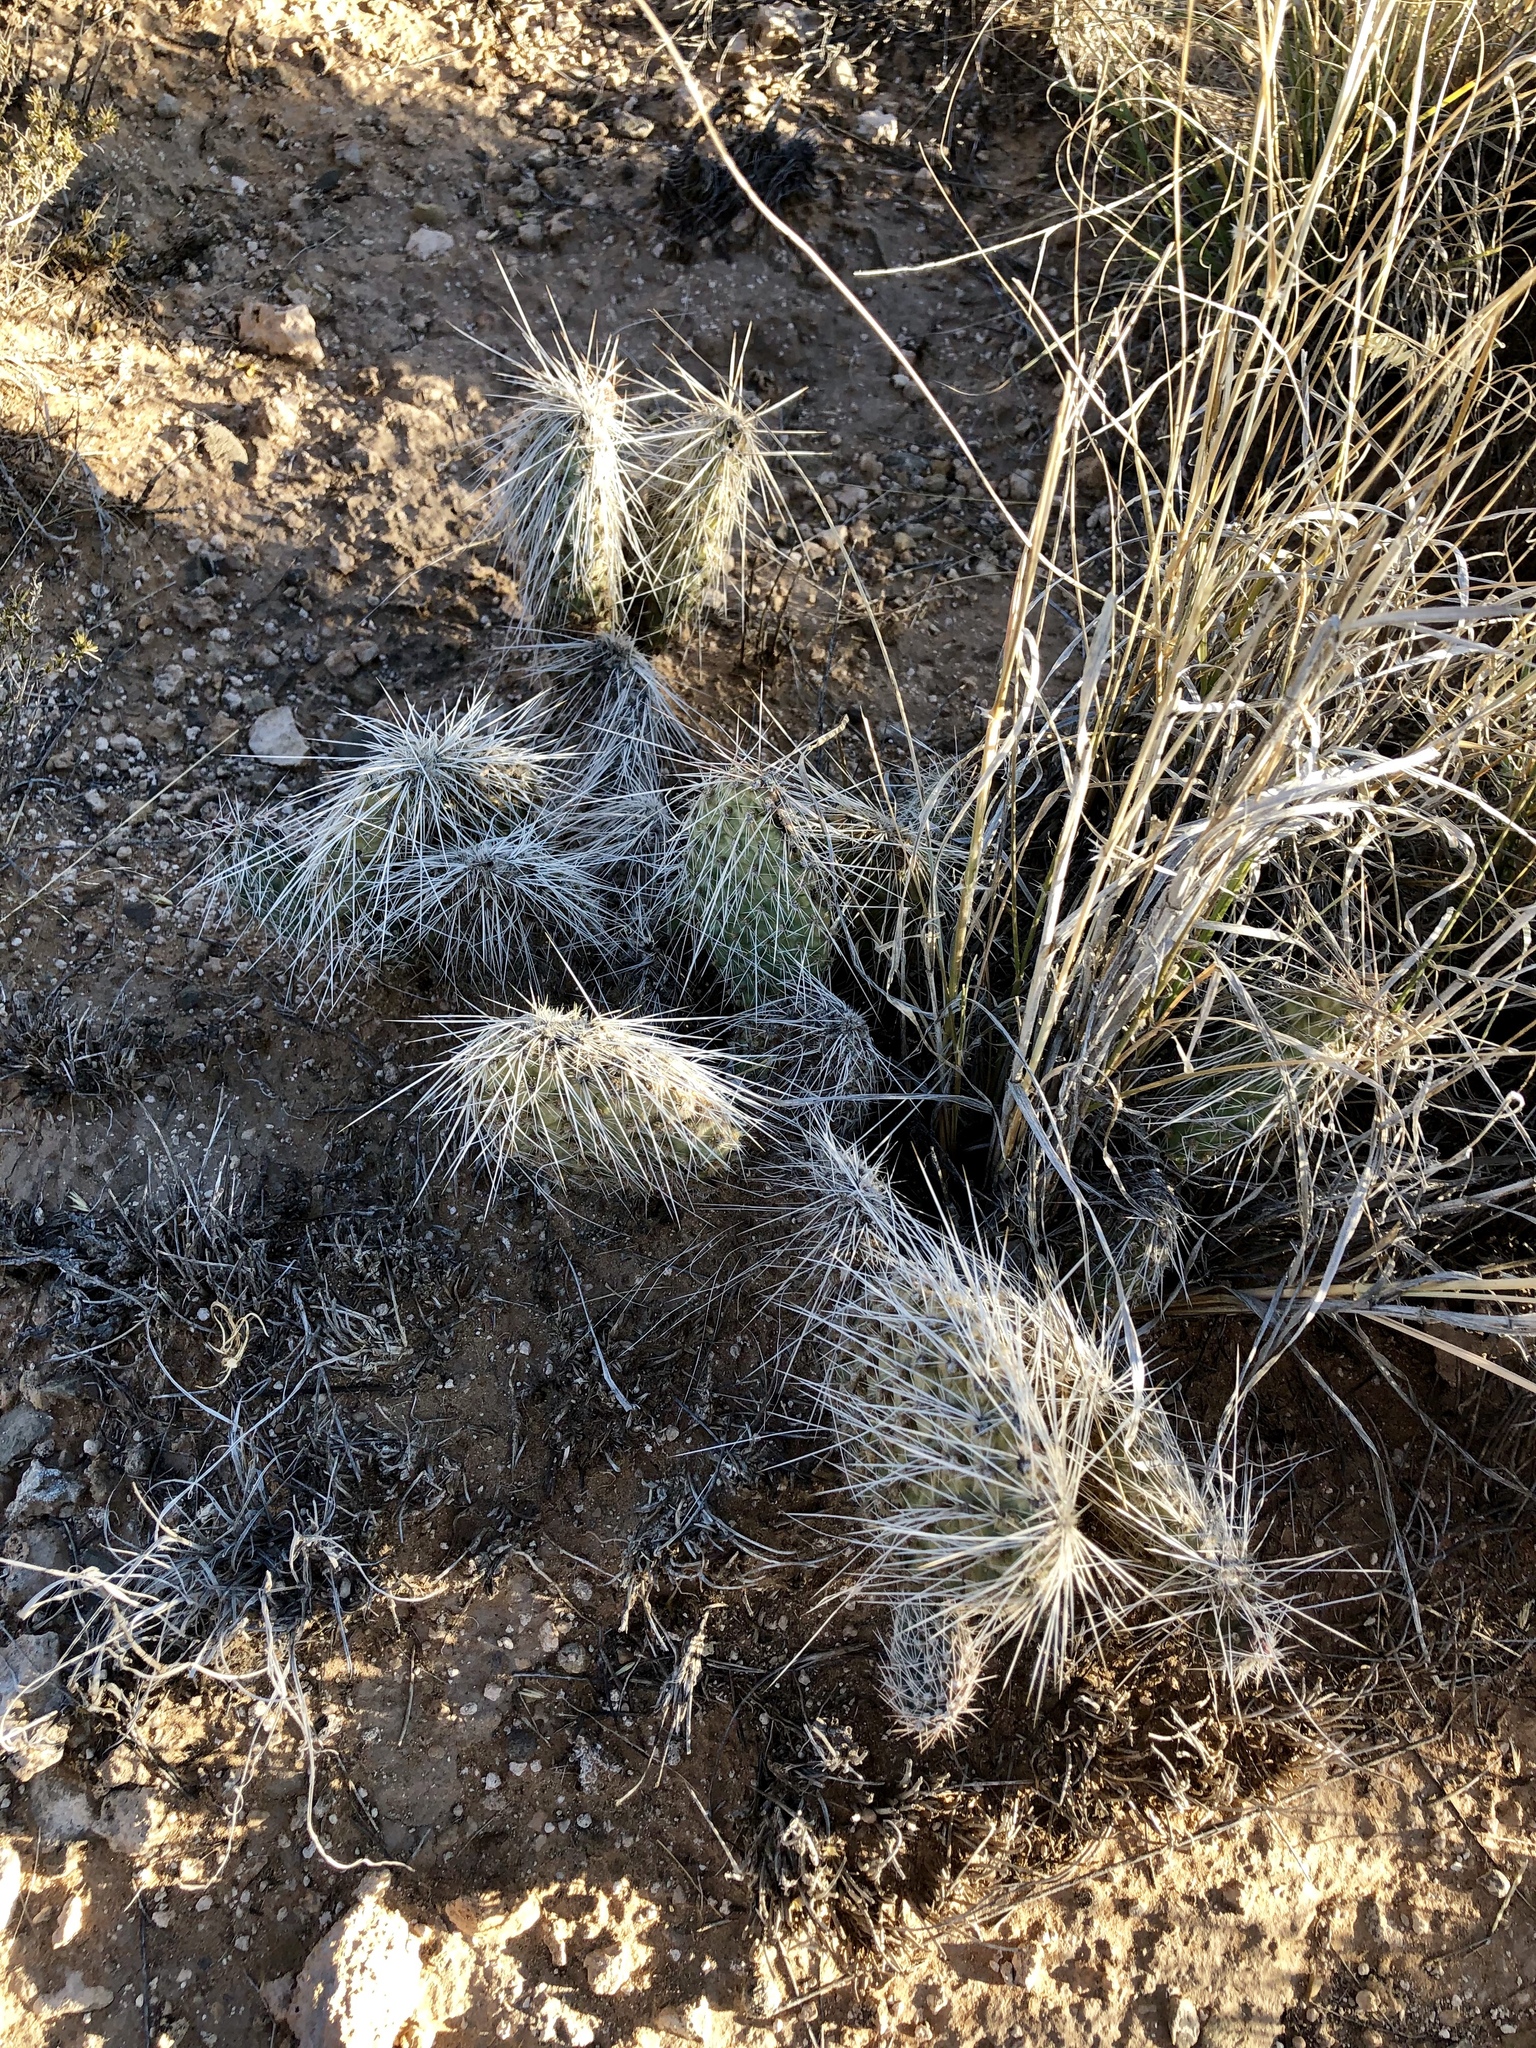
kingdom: Plantae
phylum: Tracheophyta
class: Magnoliopsida
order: Caryophyllales
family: Cactaceae
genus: Opuntia
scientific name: Opuntia polyacantha
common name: Plains prickly-pear
